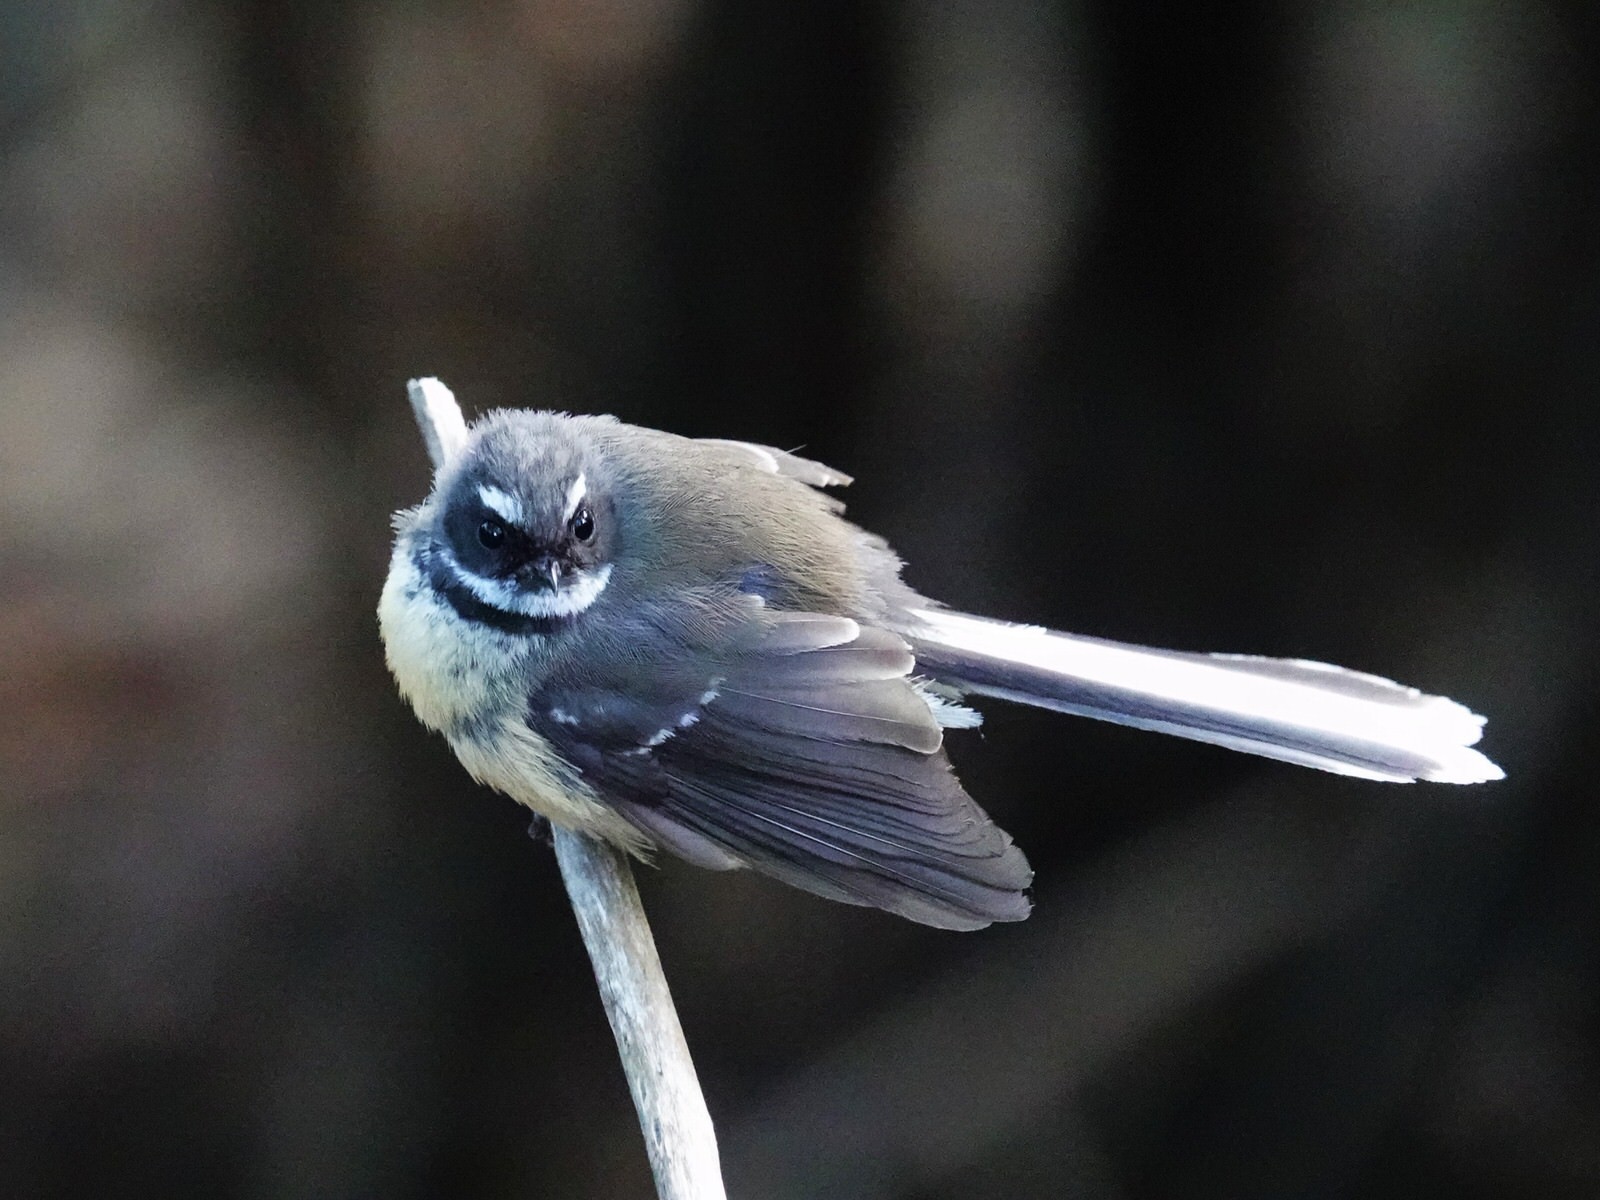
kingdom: Animalia
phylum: Chordata
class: Aves
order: Passeriformes
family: Rhipiduridae
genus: Rhipidura
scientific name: Rhipidura fuliginosa
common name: New zealand fantail
